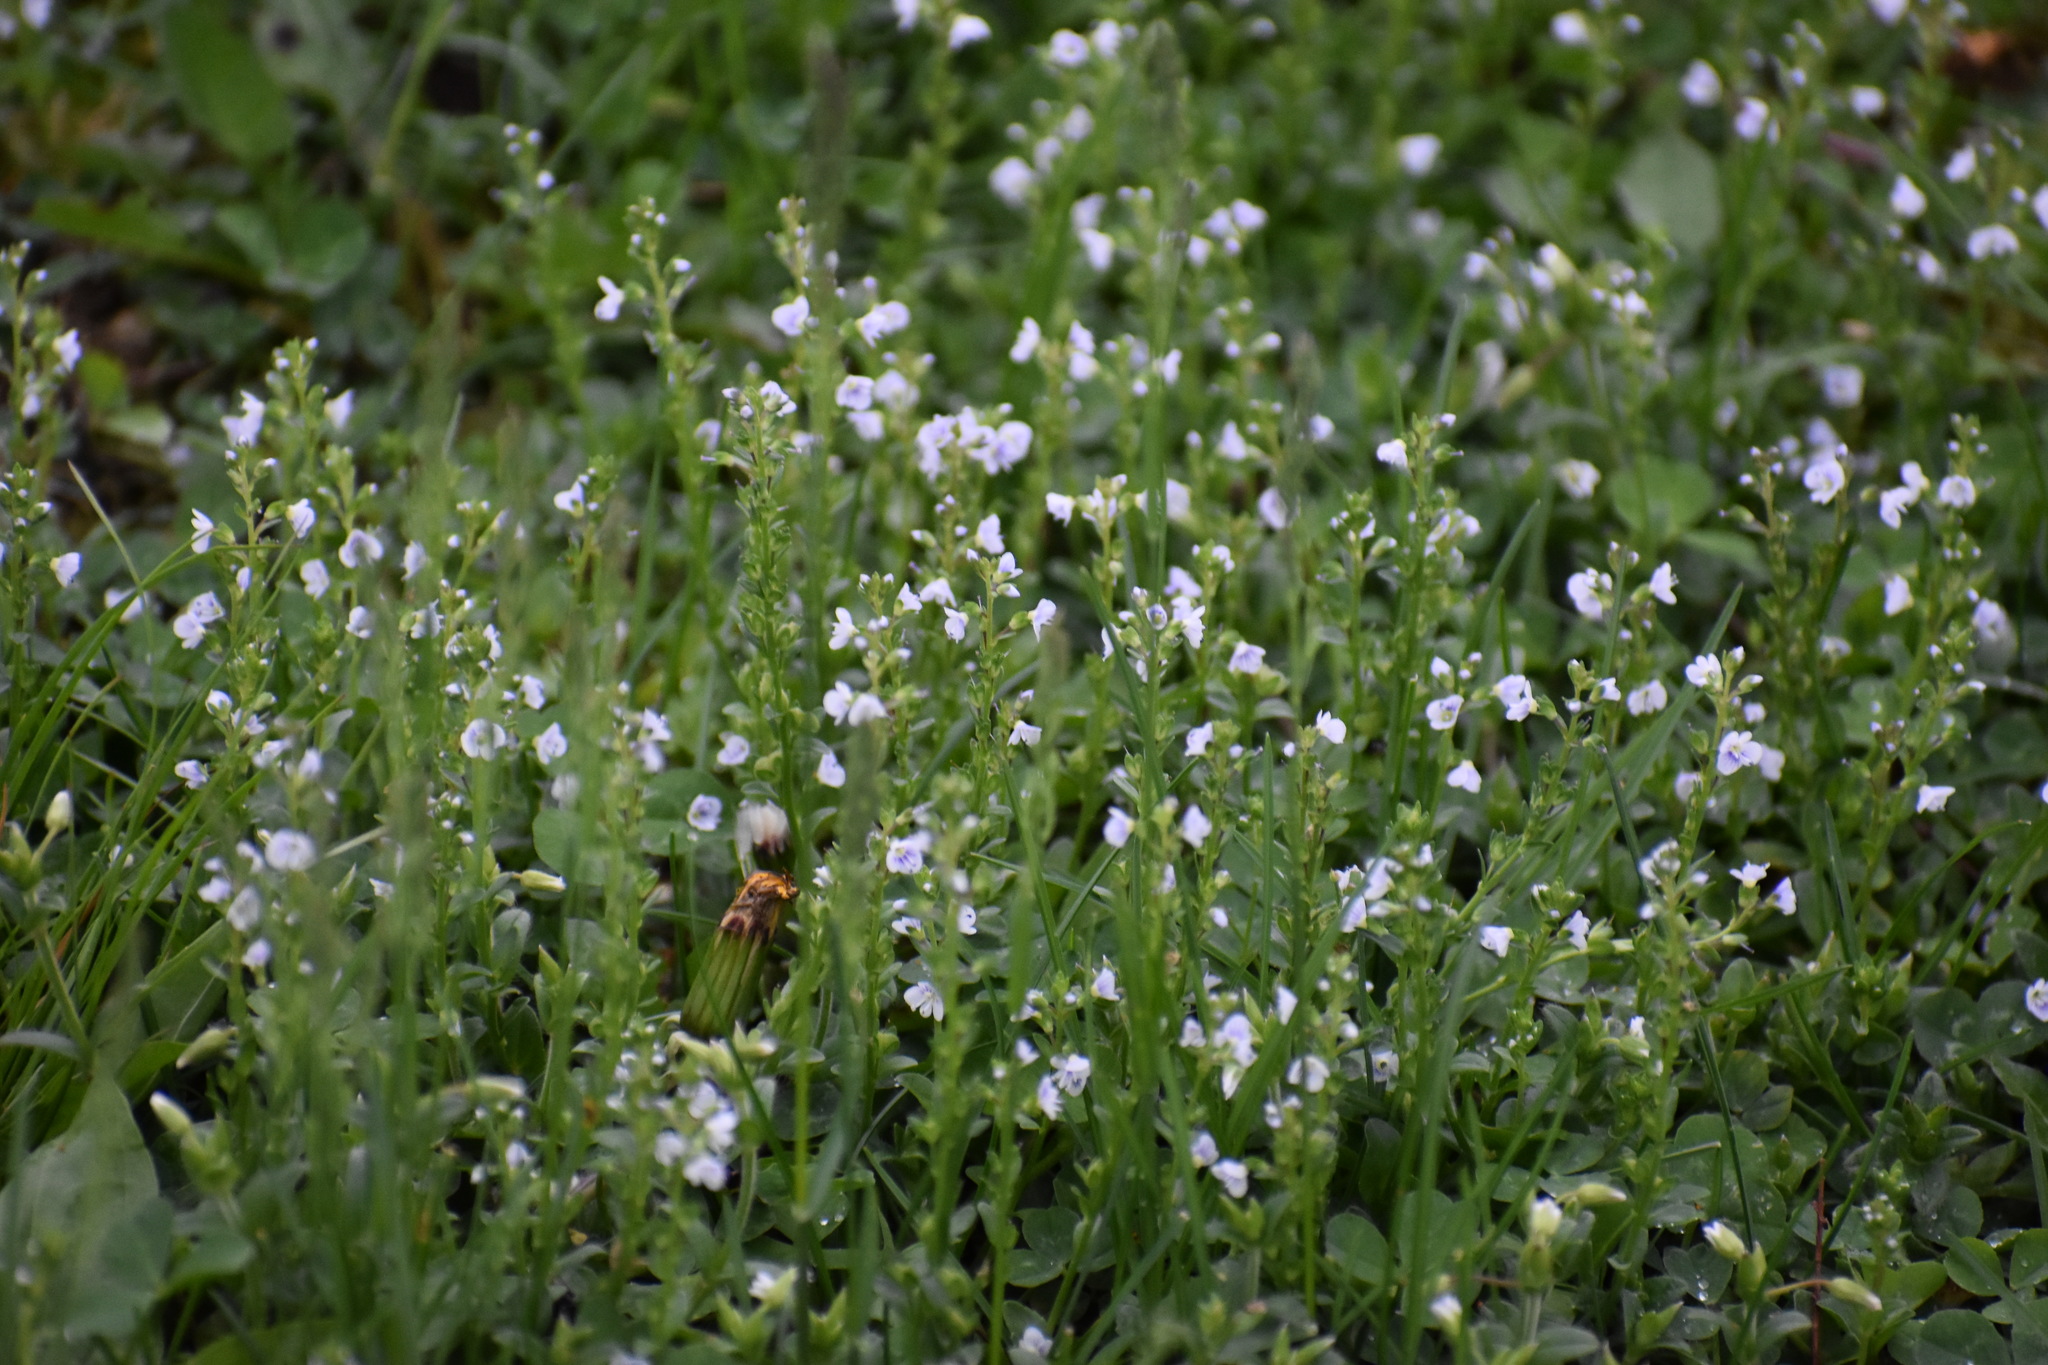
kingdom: Plantae
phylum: Tracheophyta
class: Magnoliopsida
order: Lamiales
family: Plantaginaceae
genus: Veronica
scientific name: Veronica serpyllifolia
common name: Thyme-leaved speedwell
